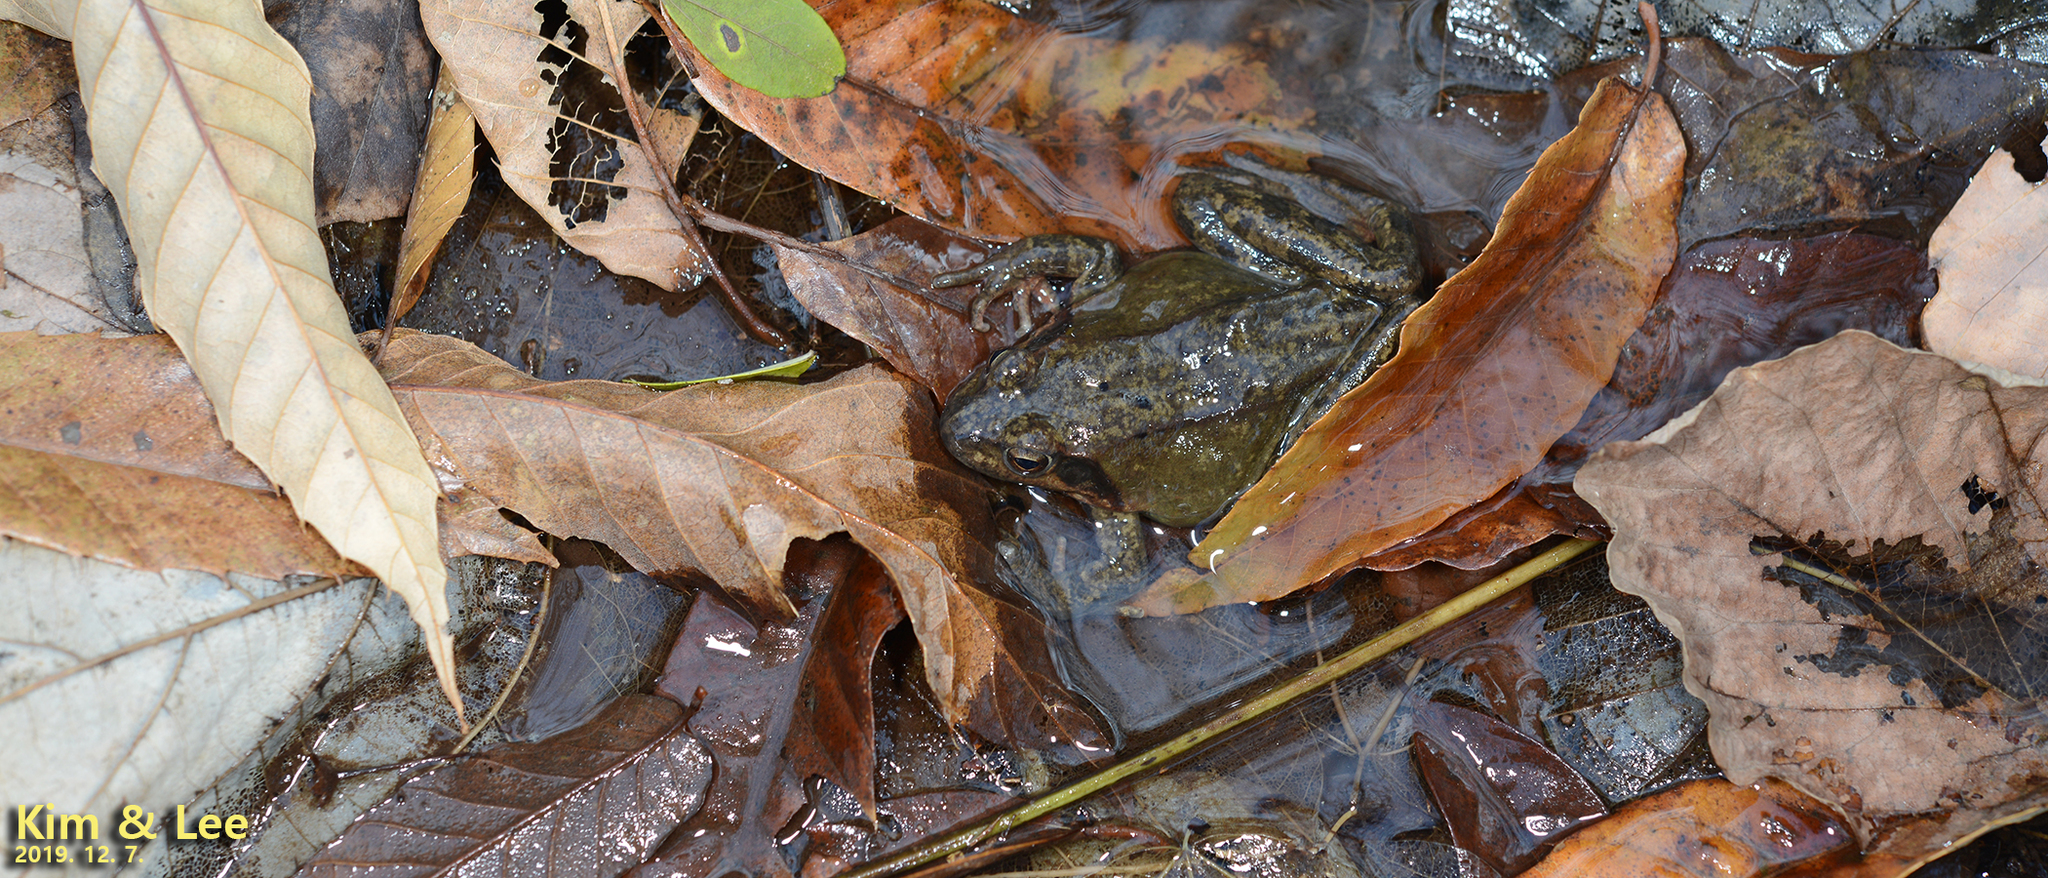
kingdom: Animalia
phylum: Chordata
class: Amphibia
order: Anura
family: Ranidae
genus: Rana
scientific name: Rana dybowskii
